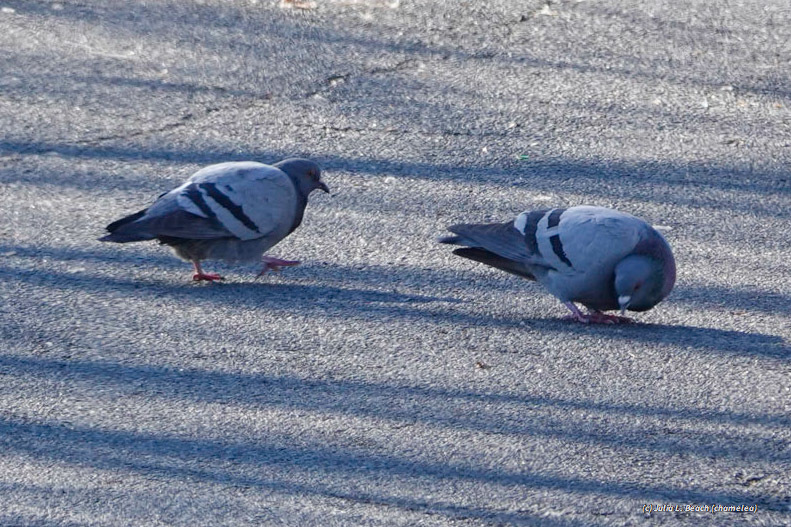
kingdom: Animalia
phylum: Chordata
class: Aves
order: Columbiformes
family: Columbidae
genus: Columba
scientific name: Columba livia
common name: Rock pigeon
